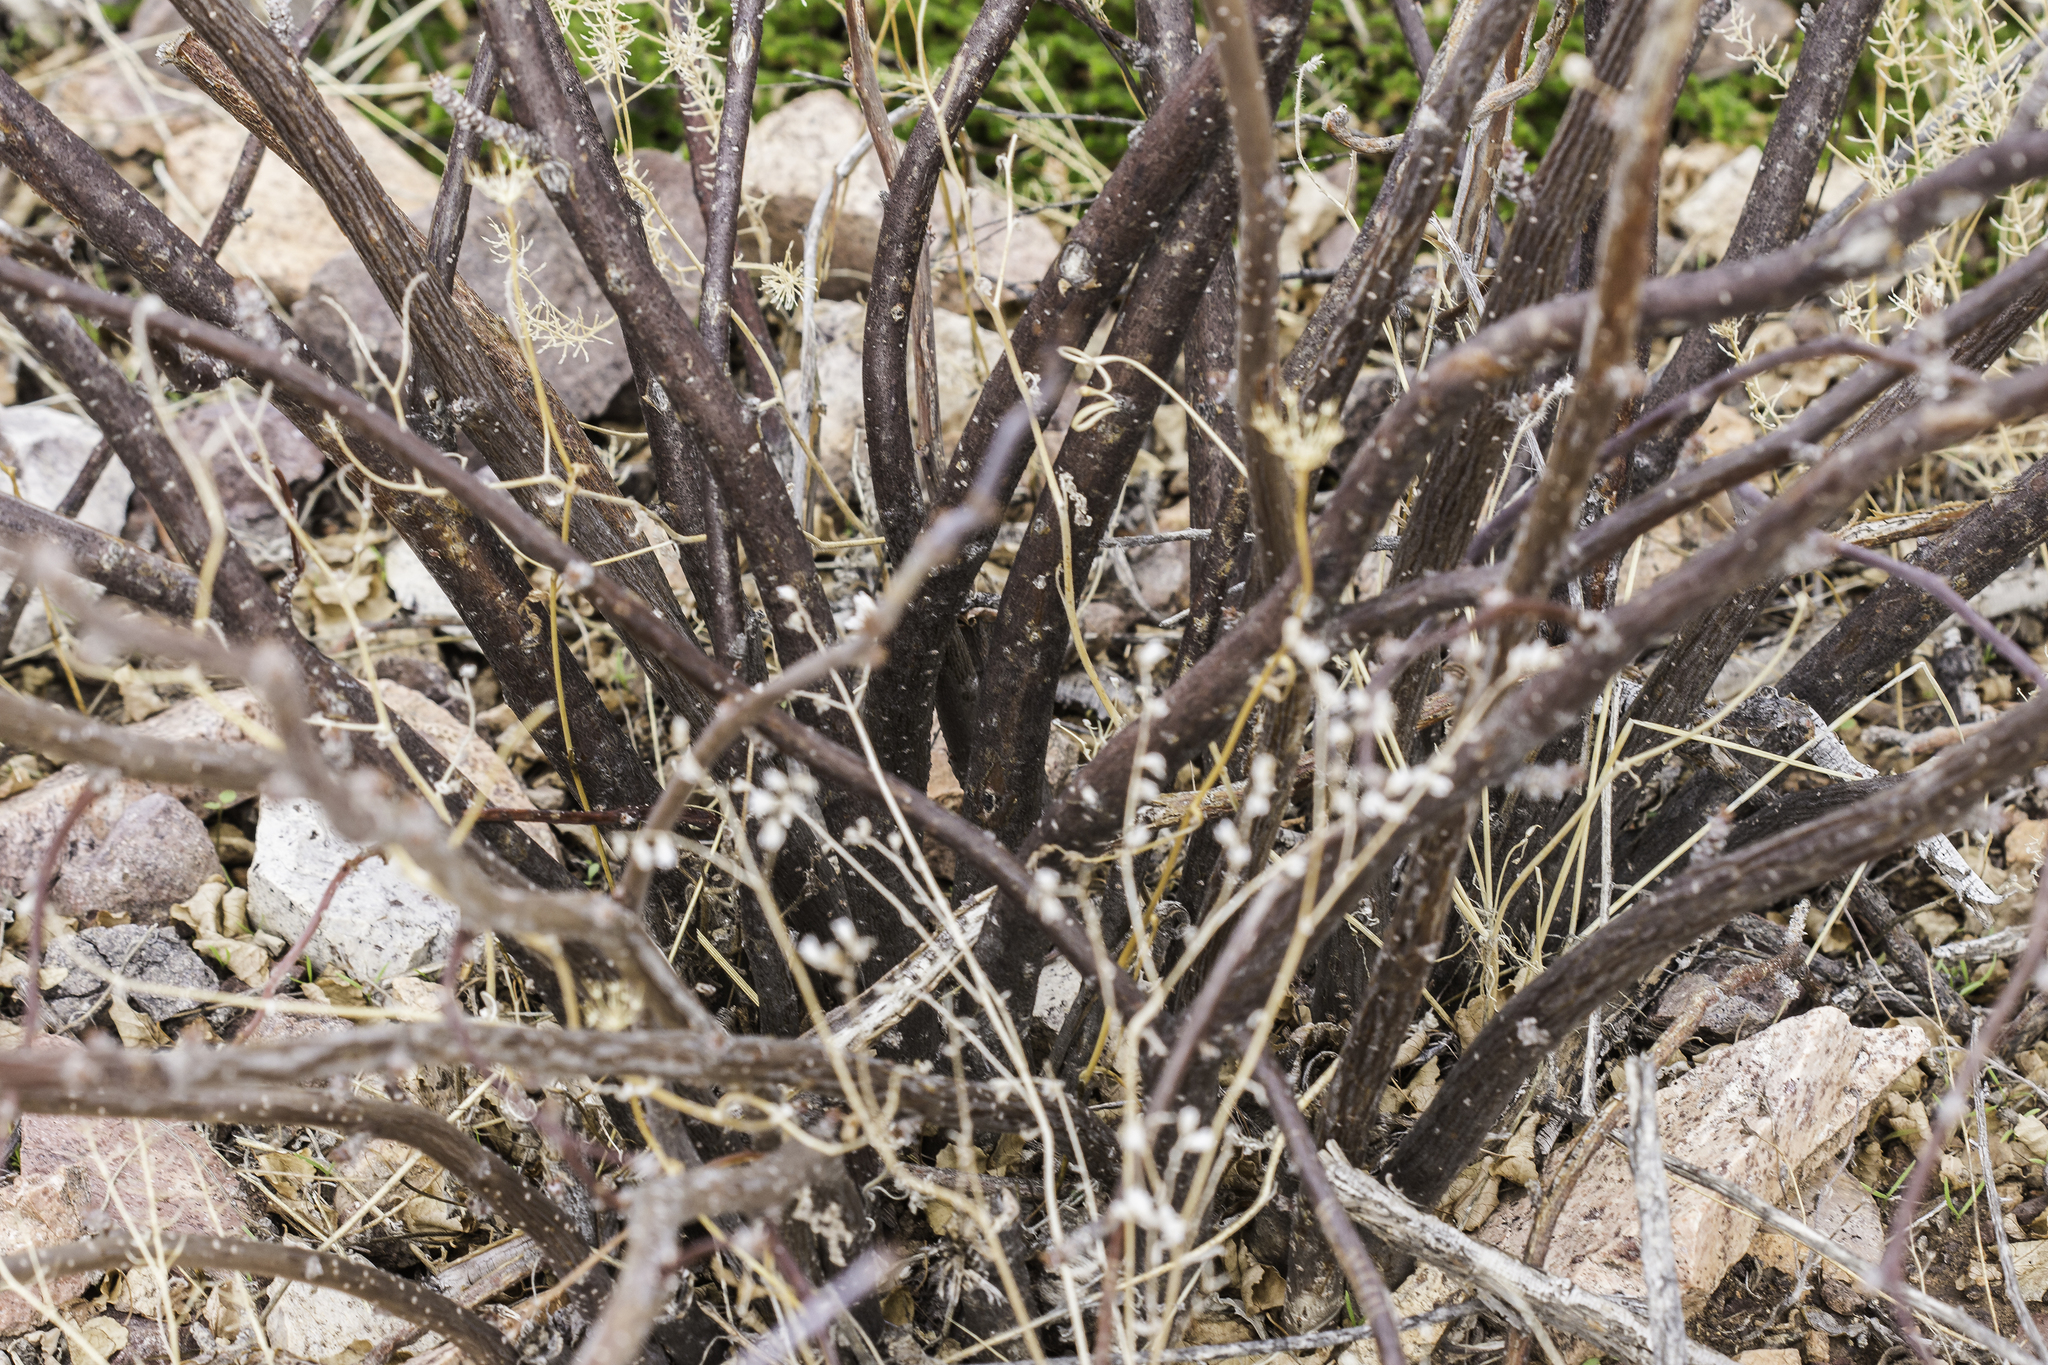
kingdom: Plantae
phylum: Tracheophyta
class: Magnoliopsida
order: Malpighiales
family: Euphorbiaceae
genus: Jatropha
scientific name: Jatropha cardiophylla
